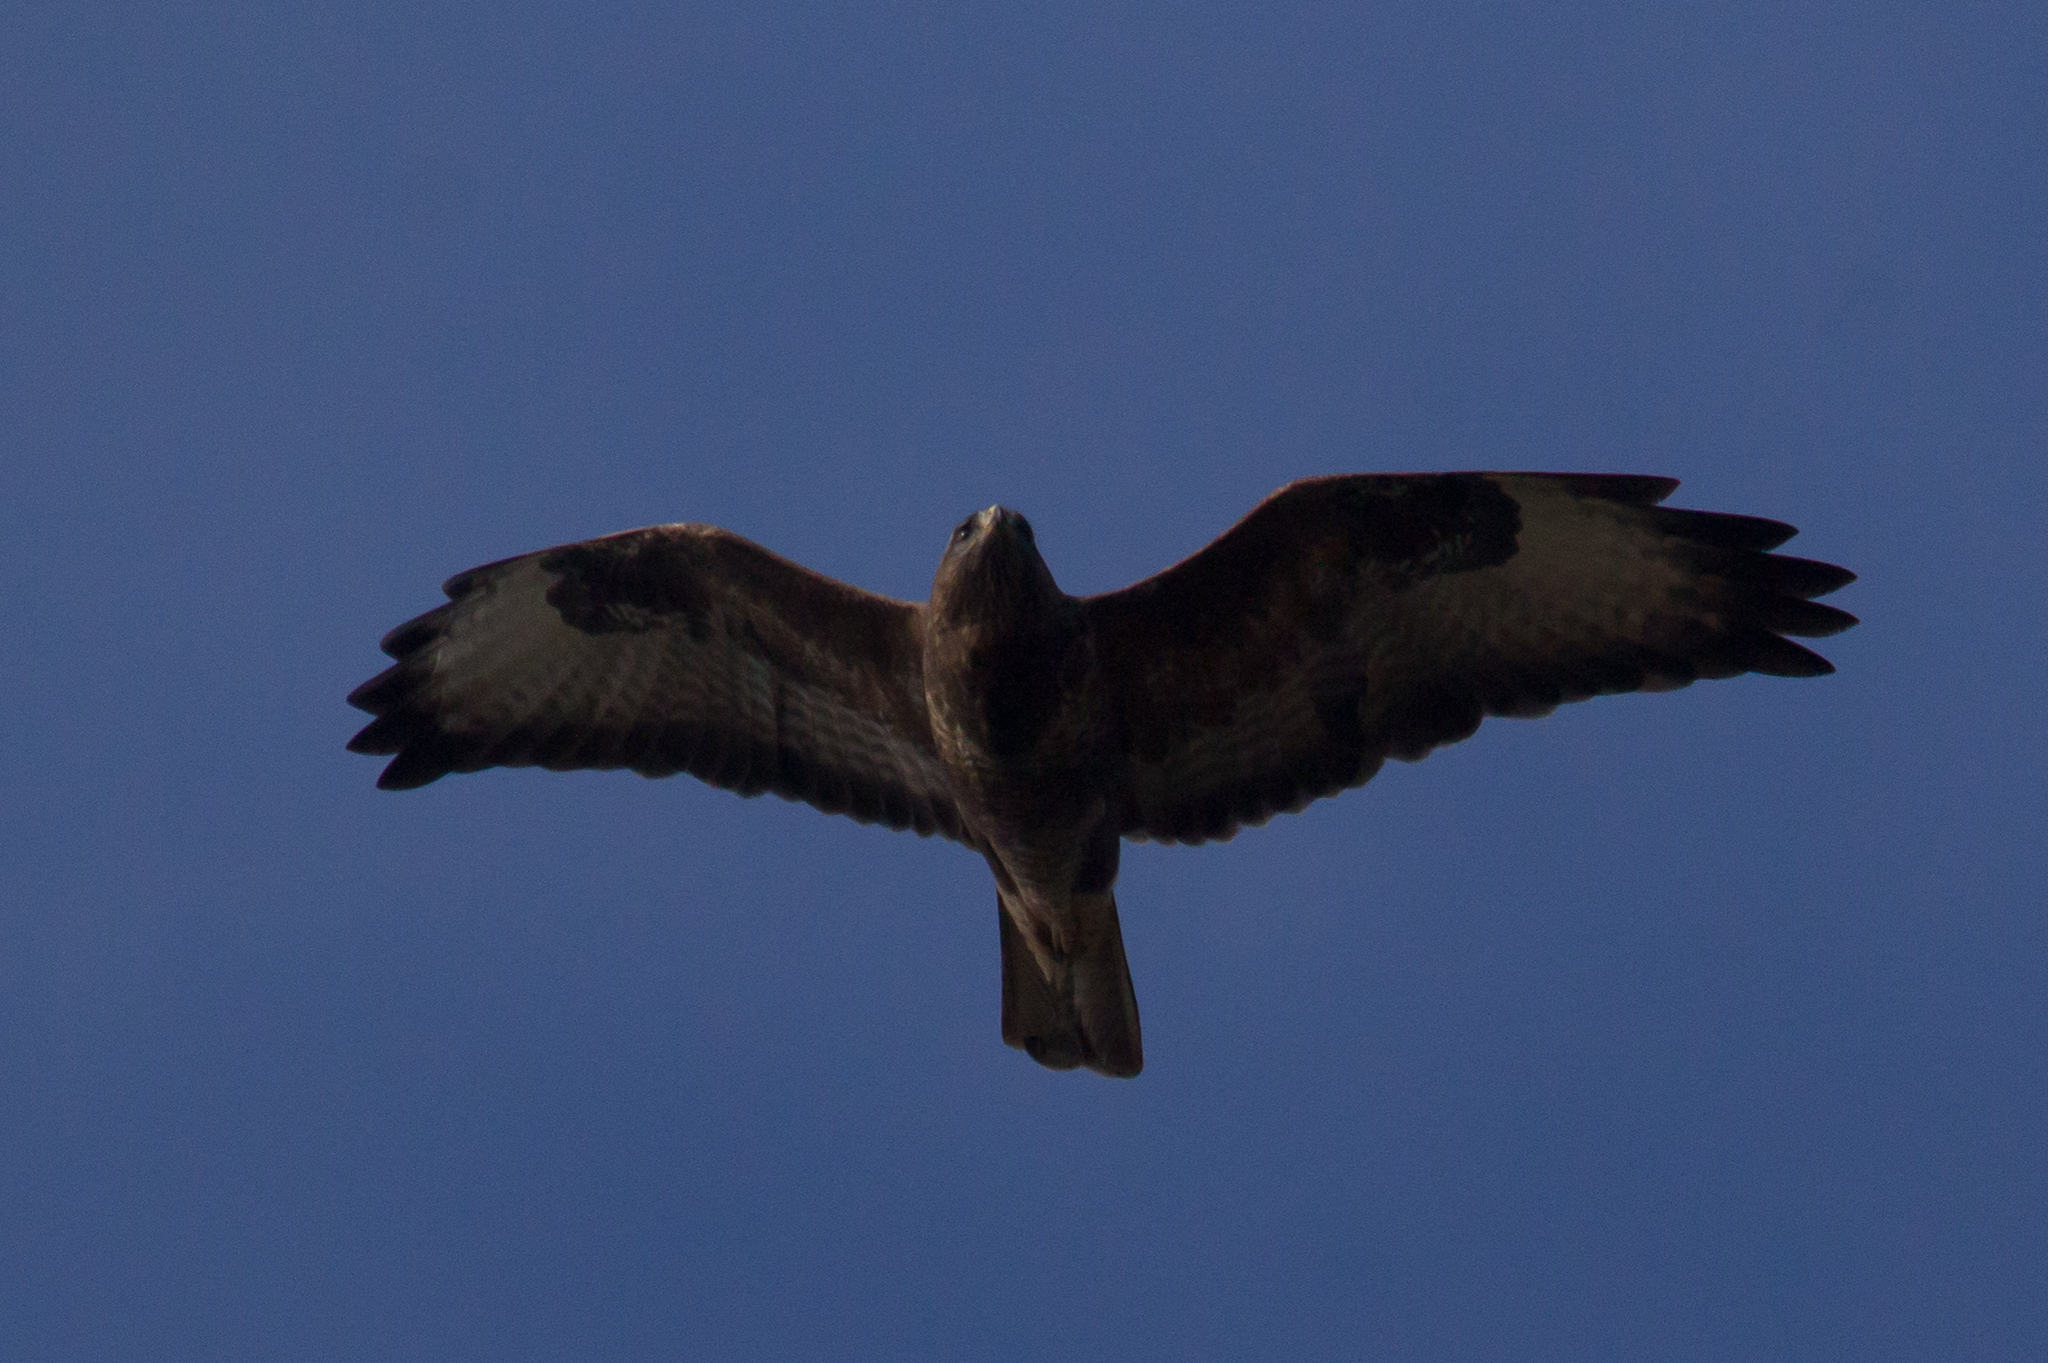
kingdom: Animalia
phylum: Chordata
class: Aves
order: Accipitriformes
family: Accipitridae
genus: Buteo
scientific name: Buteo buteo
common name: Common buzzard
